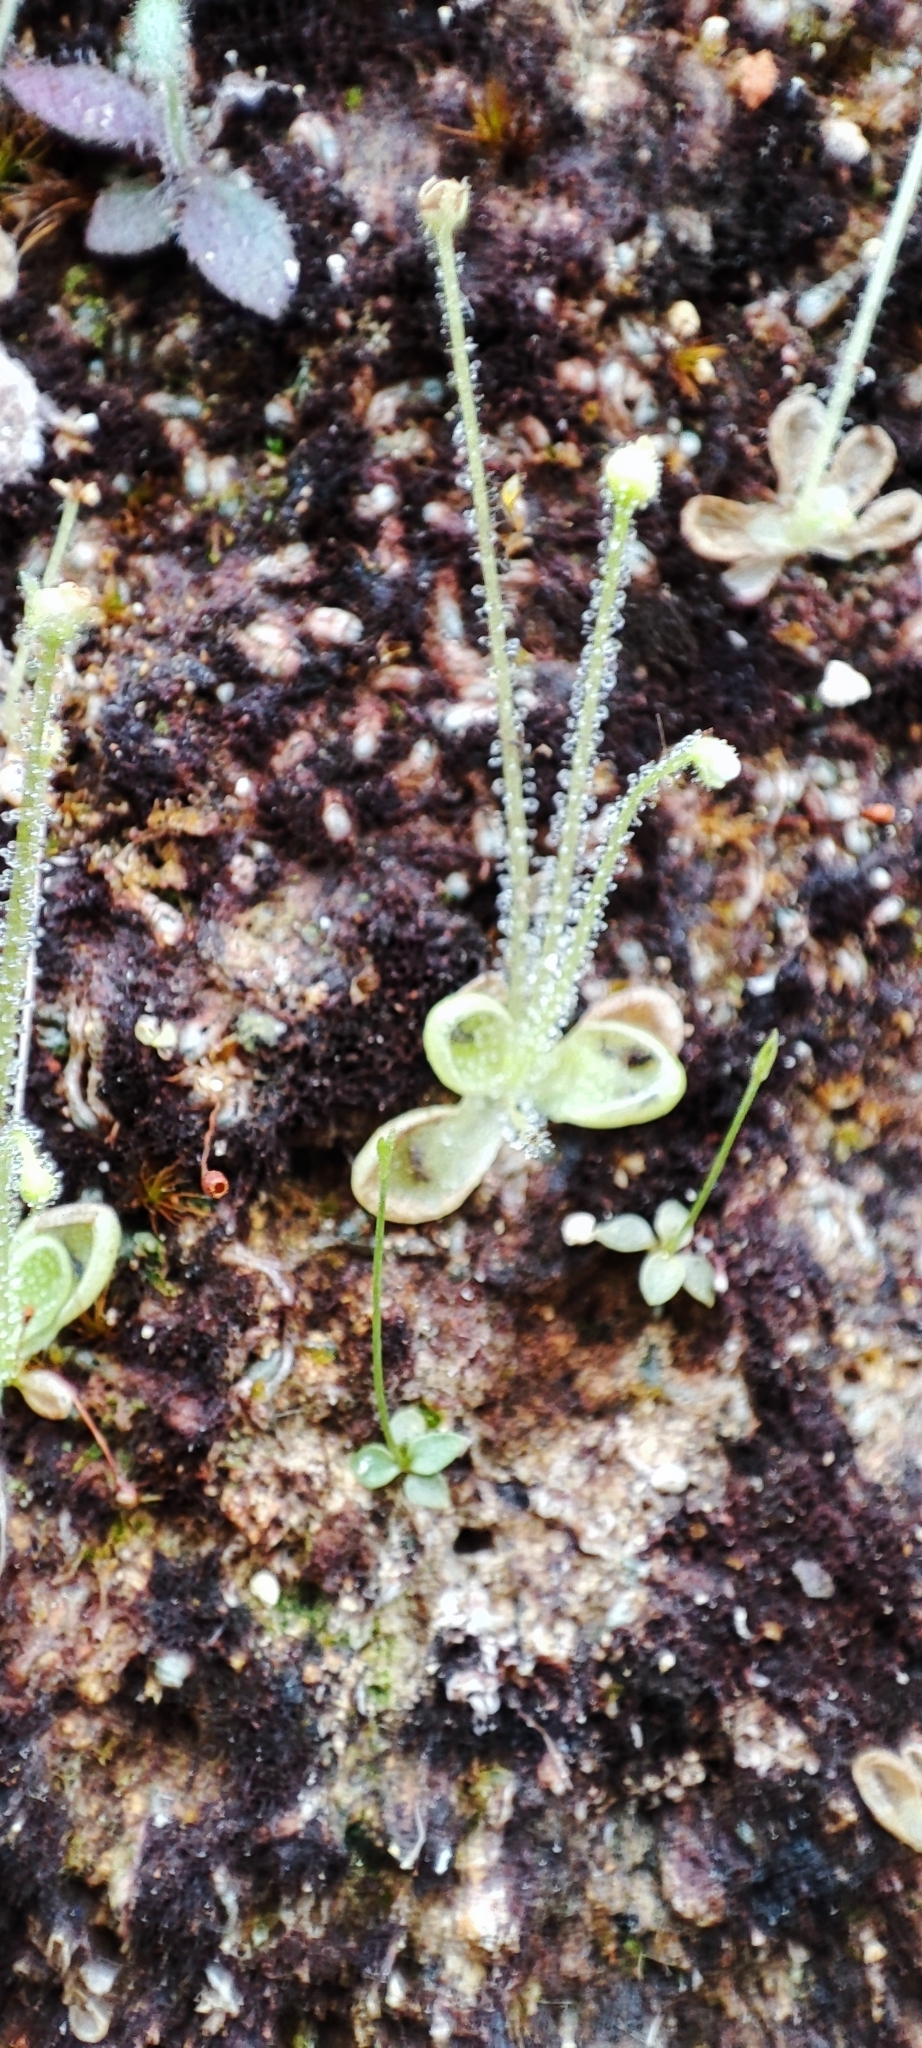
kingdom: Plantae
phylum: Tracheophyta
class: Magnoliopsida
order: Lamiales
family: Lentibulariaceae
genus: Pinguicula
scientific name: Pinguicula crenatiloba
